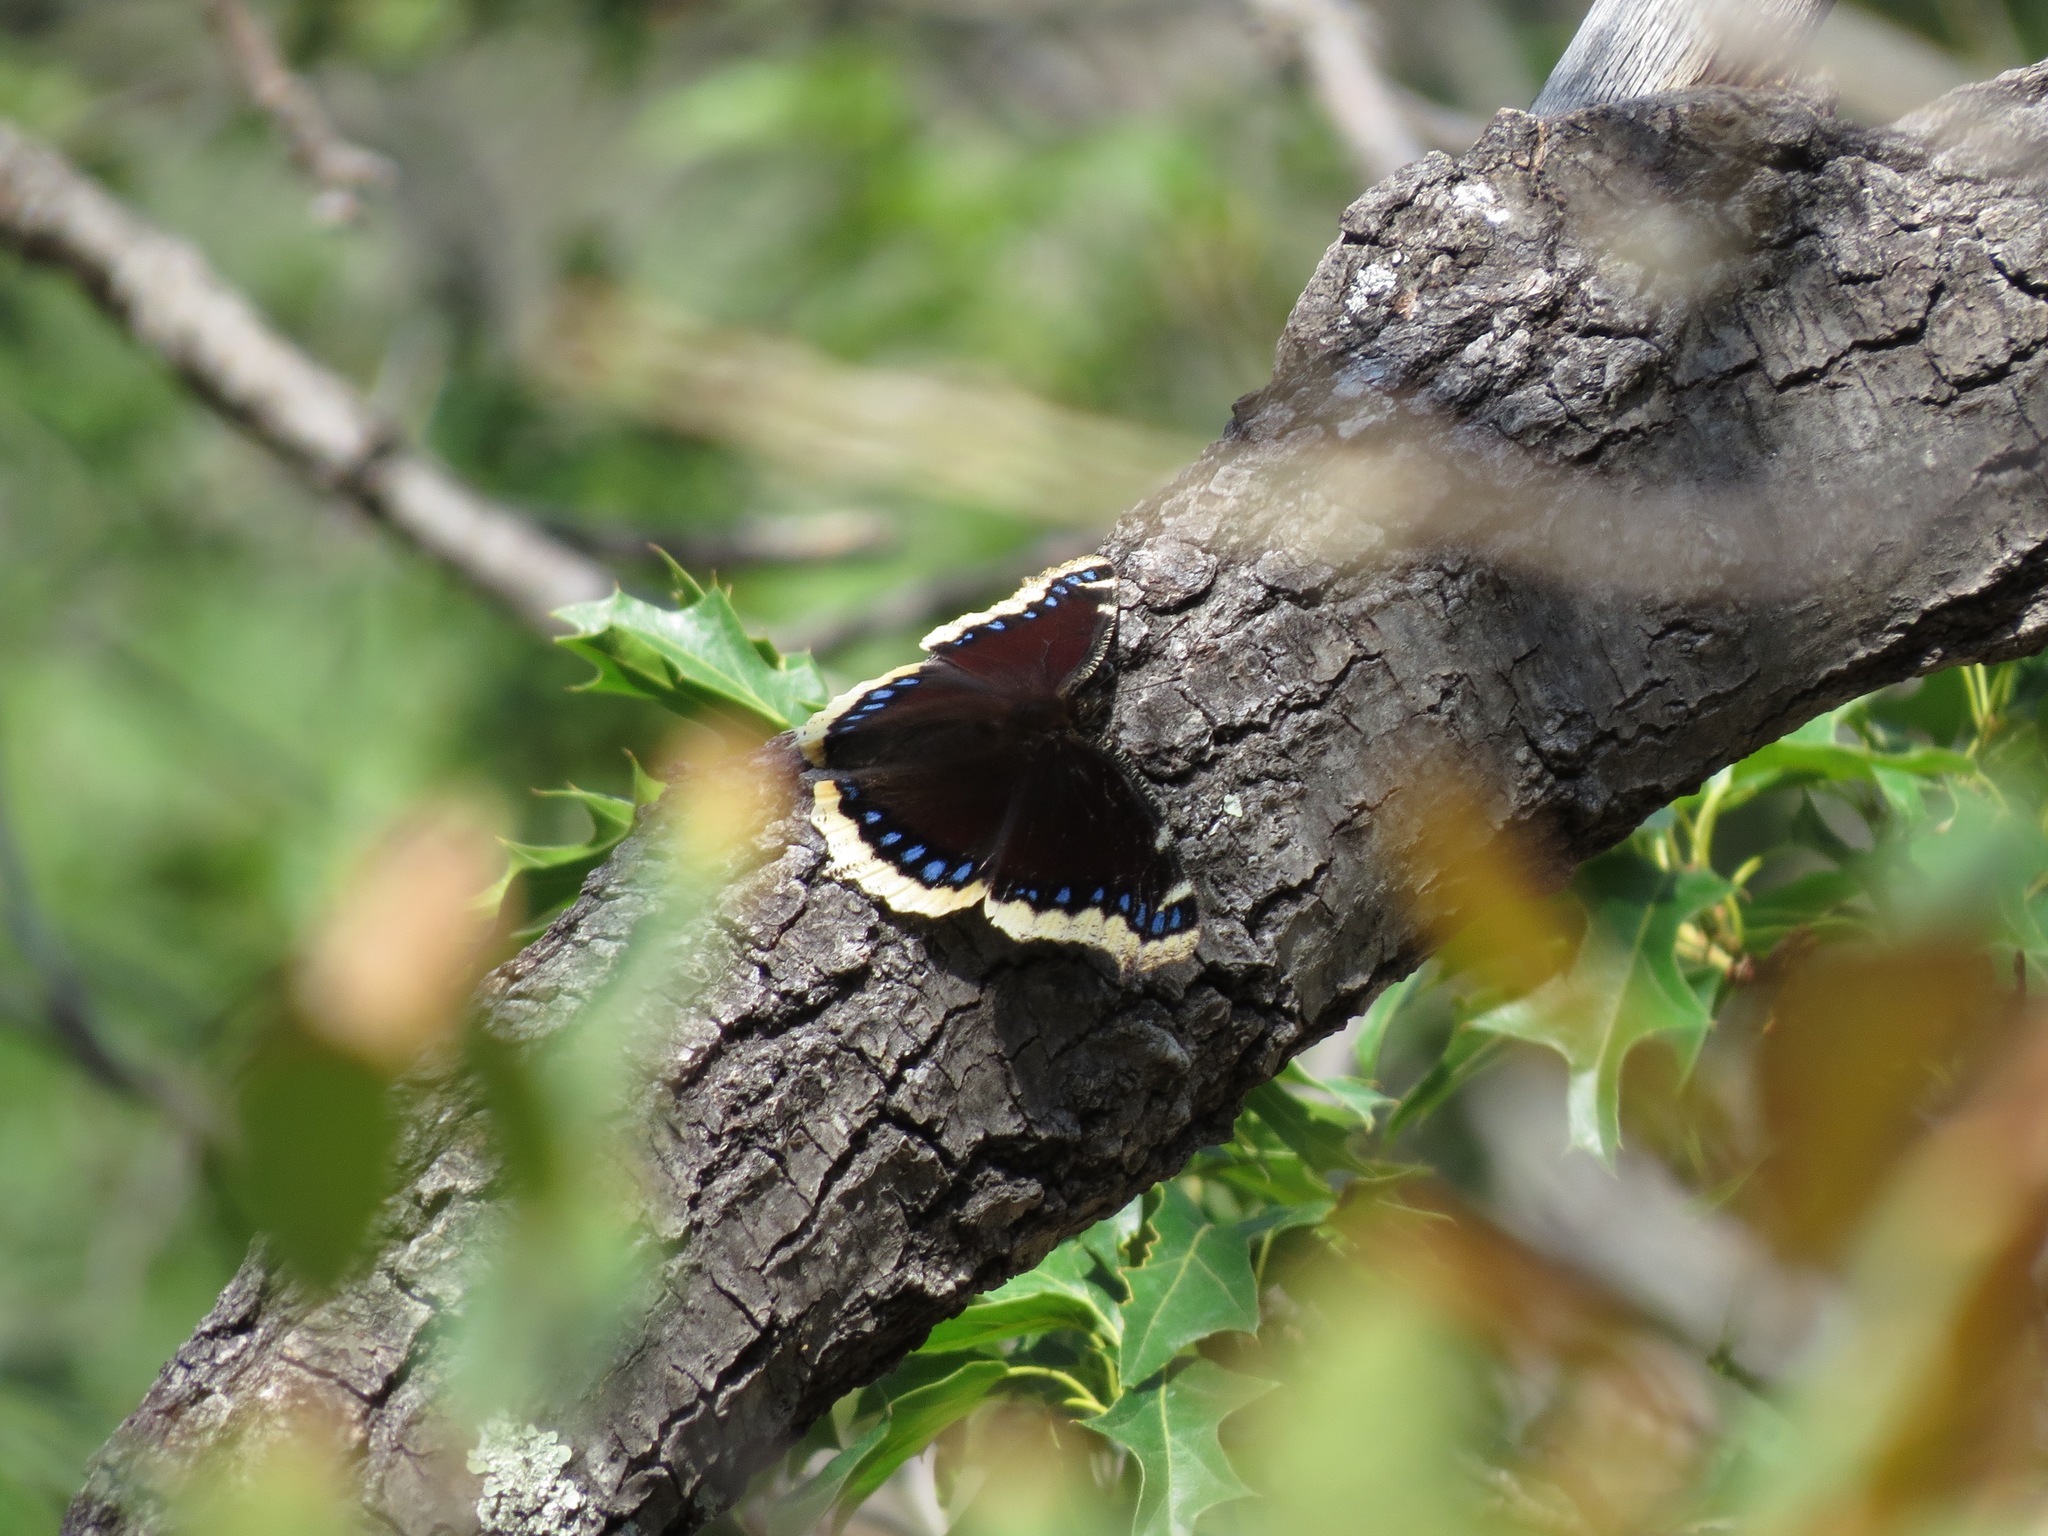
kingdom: Animalia
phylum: Arthropoda
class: Insecta
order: Lepidoptera
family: Nymphalidae
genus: Nymphalis
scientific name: Nymphalis antiopa
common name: Camberwell beauty
